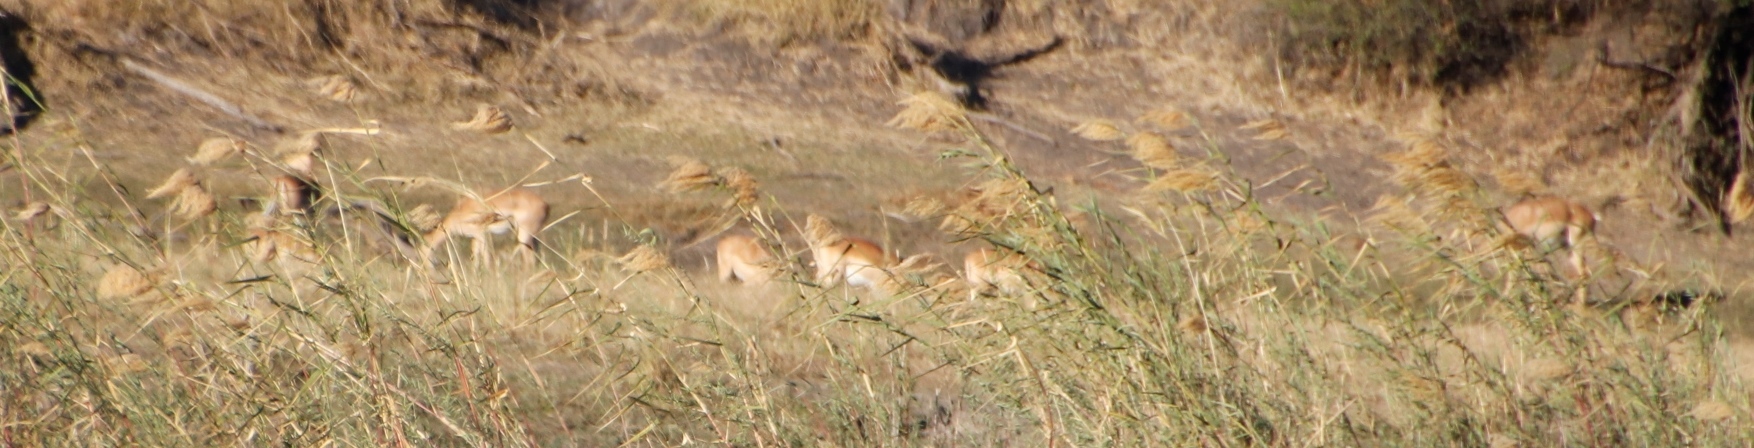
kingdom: Animalia
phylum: Chordata
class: Mammalia
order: Artiodactyla
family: Bovidae
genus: Aepyceros
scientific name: Aepyceros melampus
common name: Impala
